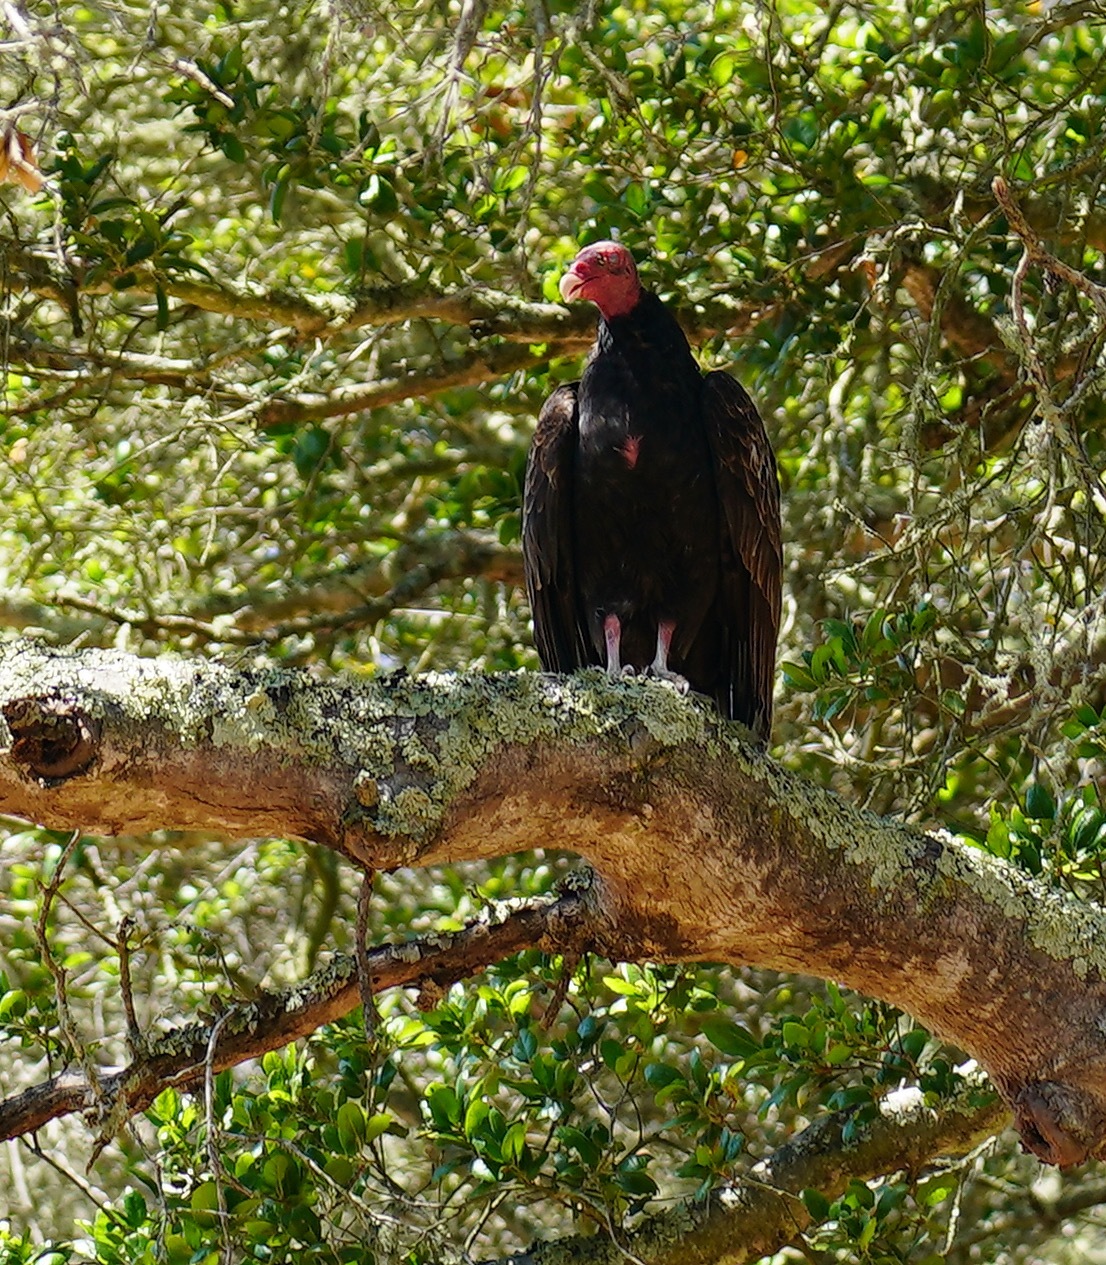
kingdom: Animalia
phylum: Chordata
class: Aves
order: Accipitriformes
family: Cathartidae
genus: Cathartes
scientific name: Cathartes aura
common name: Turkey vulture
